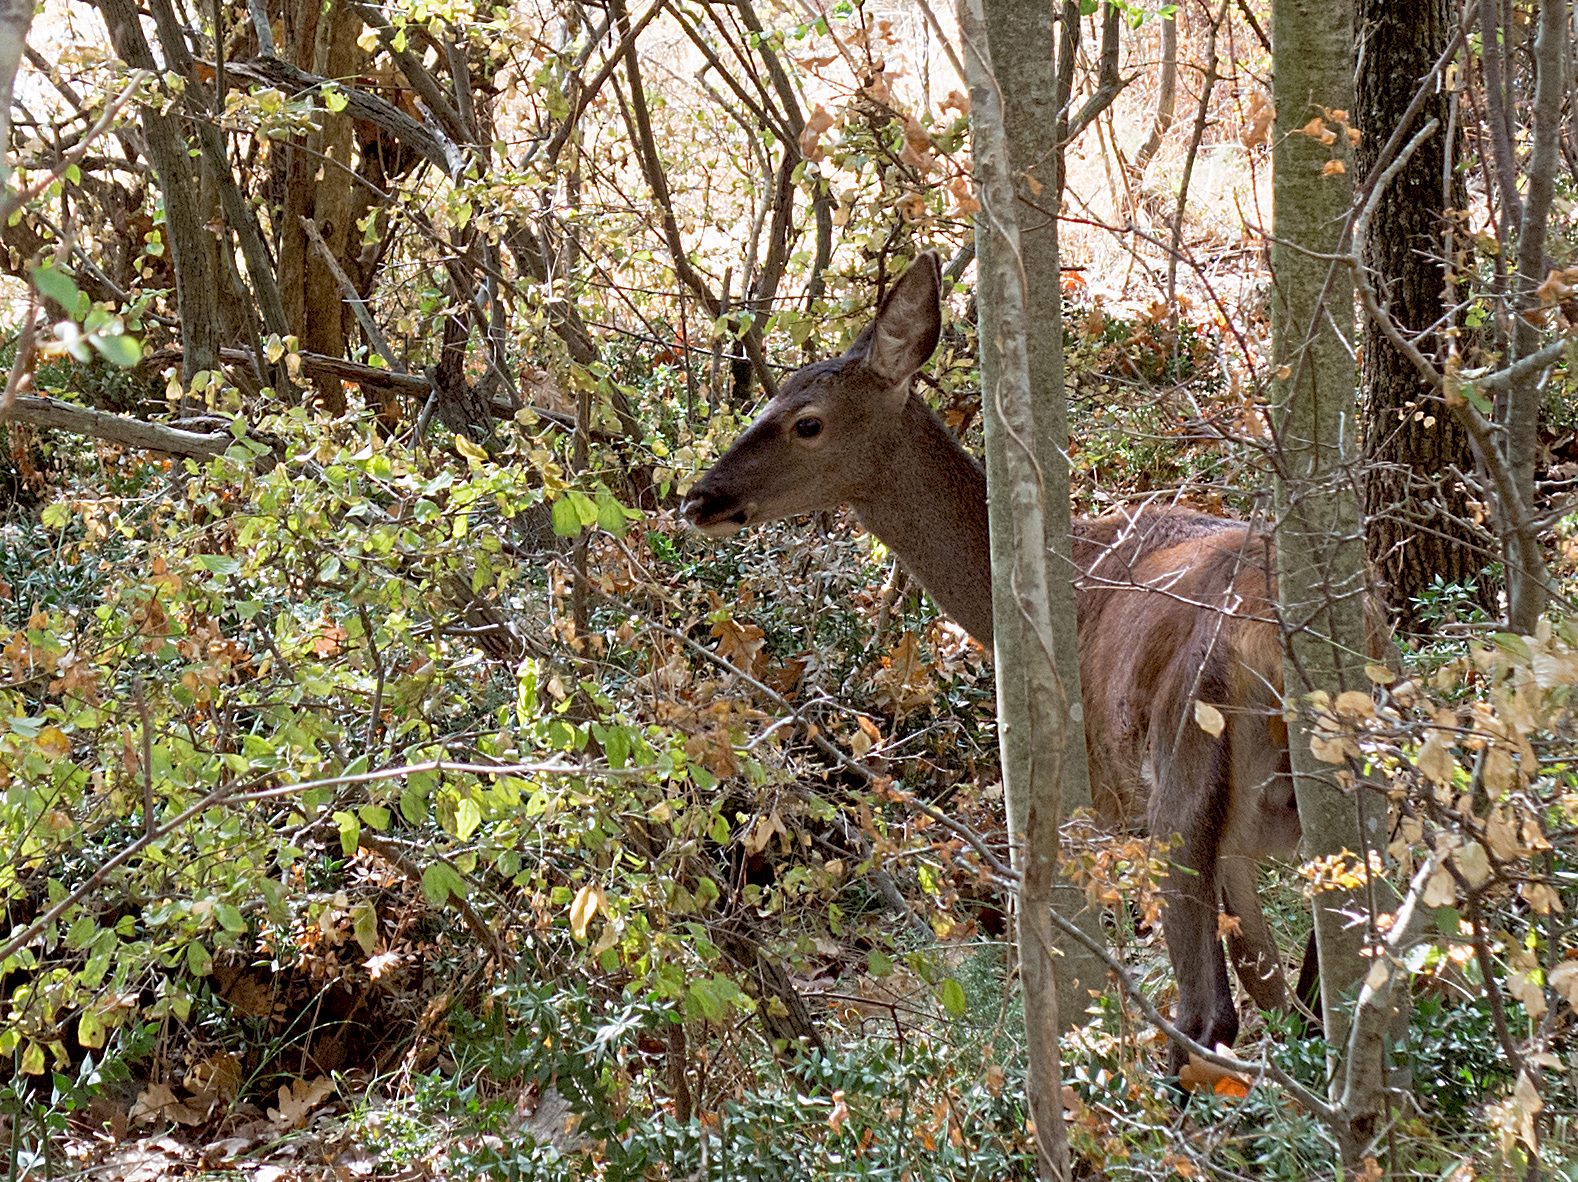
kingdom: Animalia
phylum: Chordata
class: Mammalia
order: Artiodactyla
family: Cervidae
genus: Cervus
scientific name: Cervus elaphus
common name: Red deer
